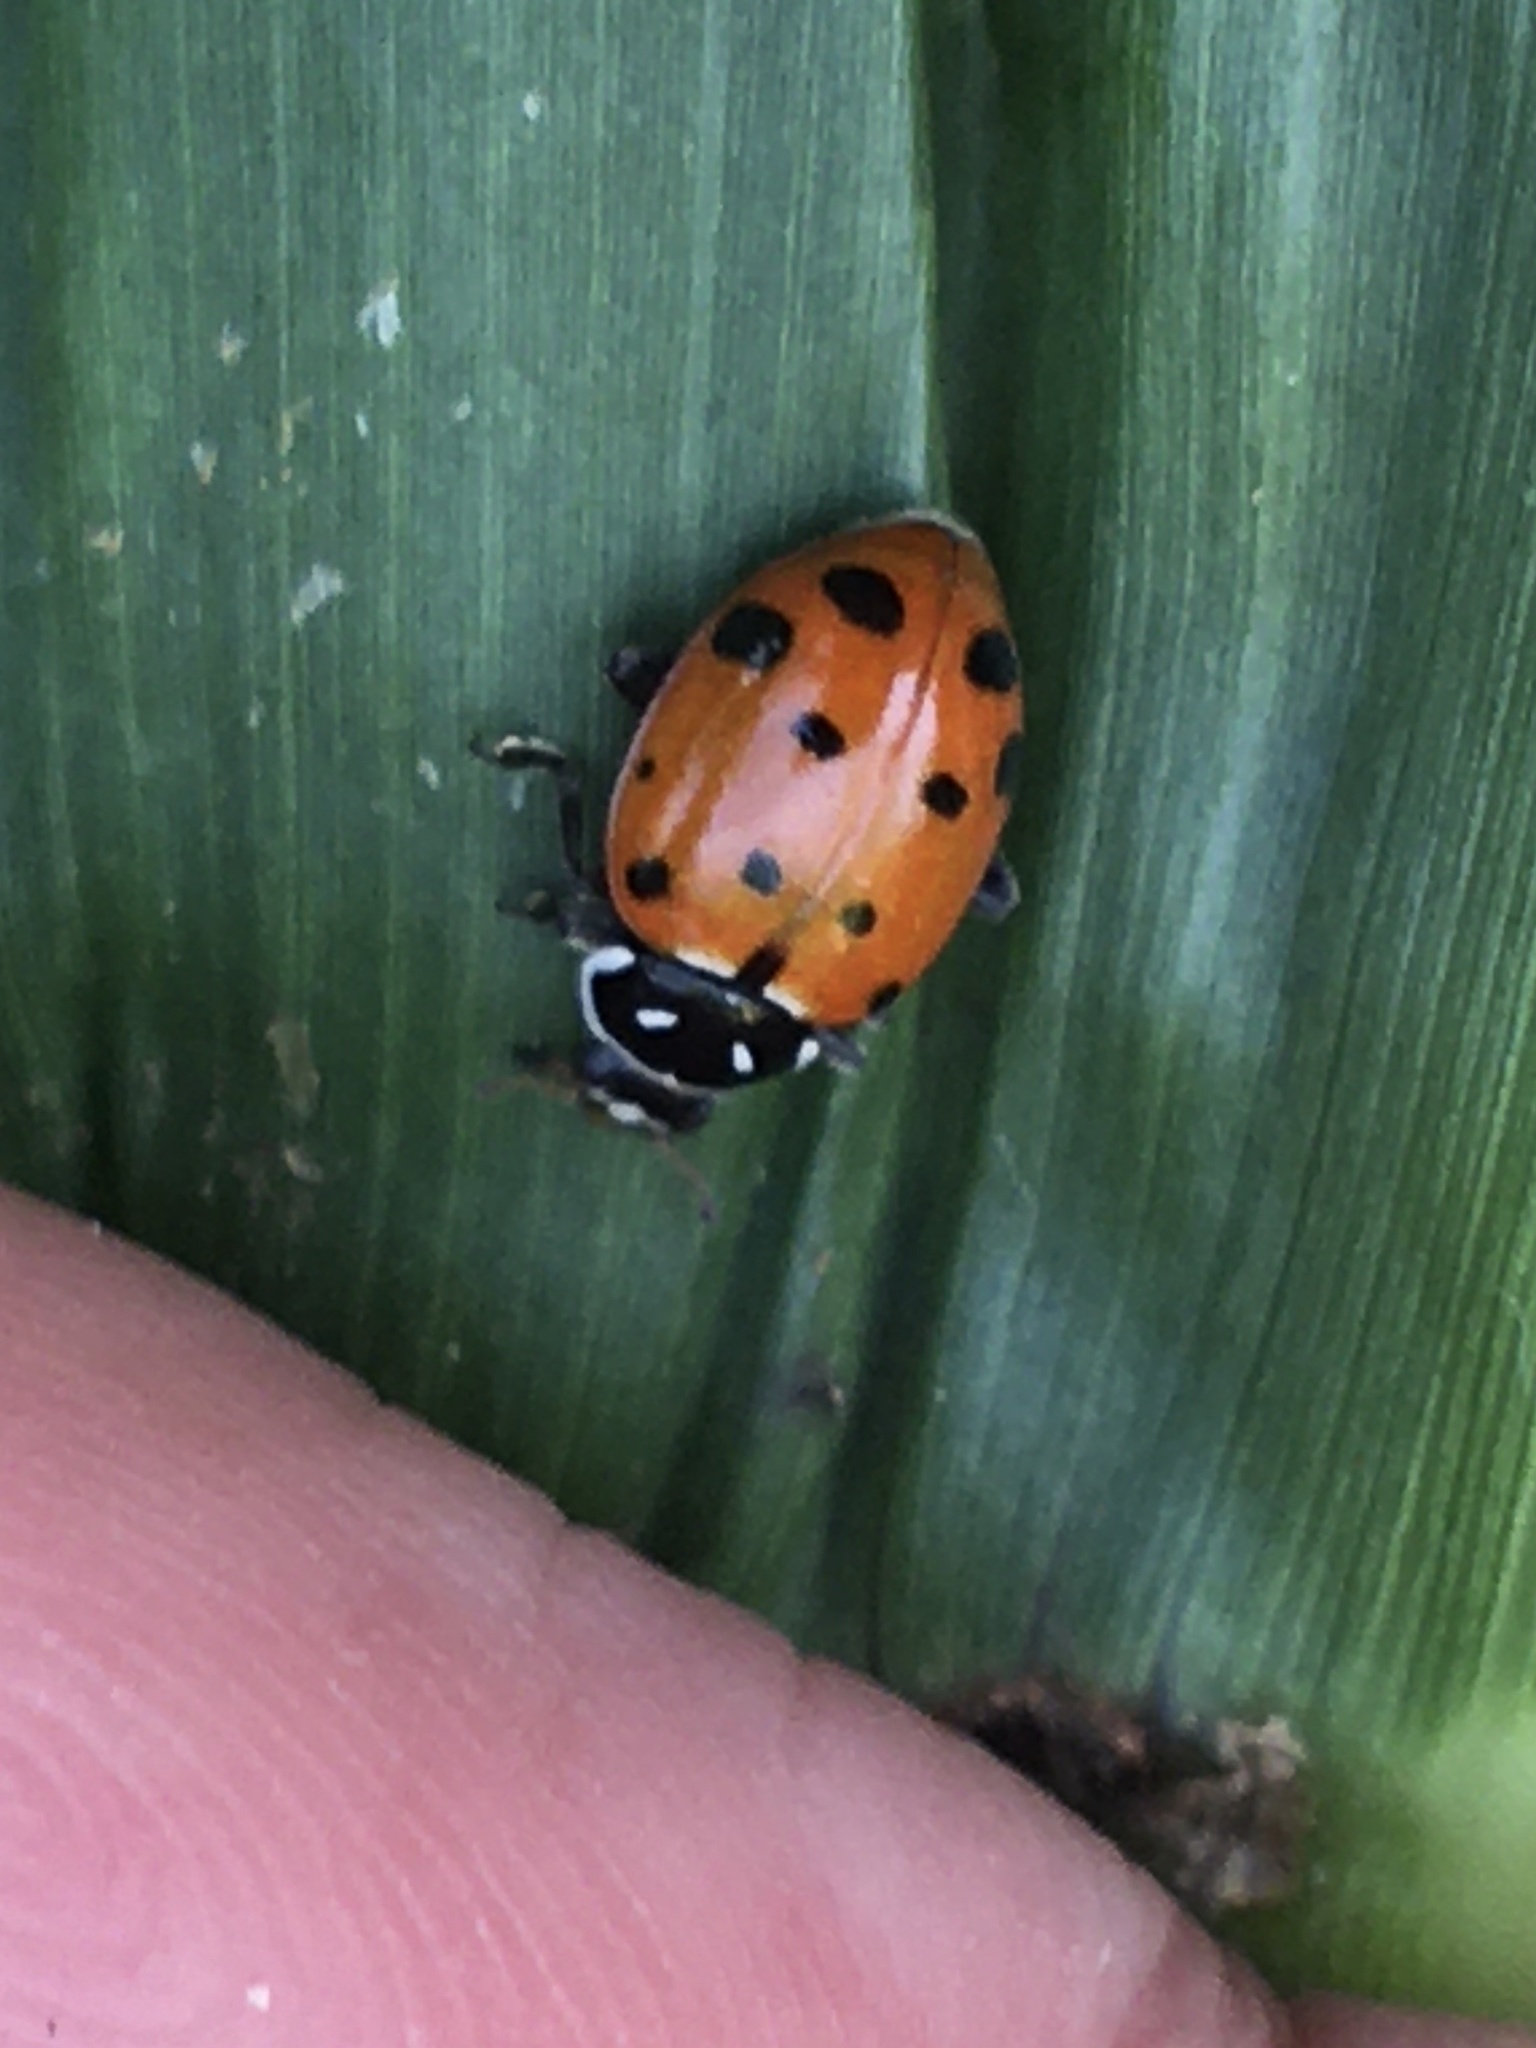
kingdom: Animalia
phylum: Arthropoda
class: Insecta
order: Coleoptera
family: Coccinellidae
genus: Hippodamia
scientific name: Hippodamia convergens
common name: Convergent lady beetle
